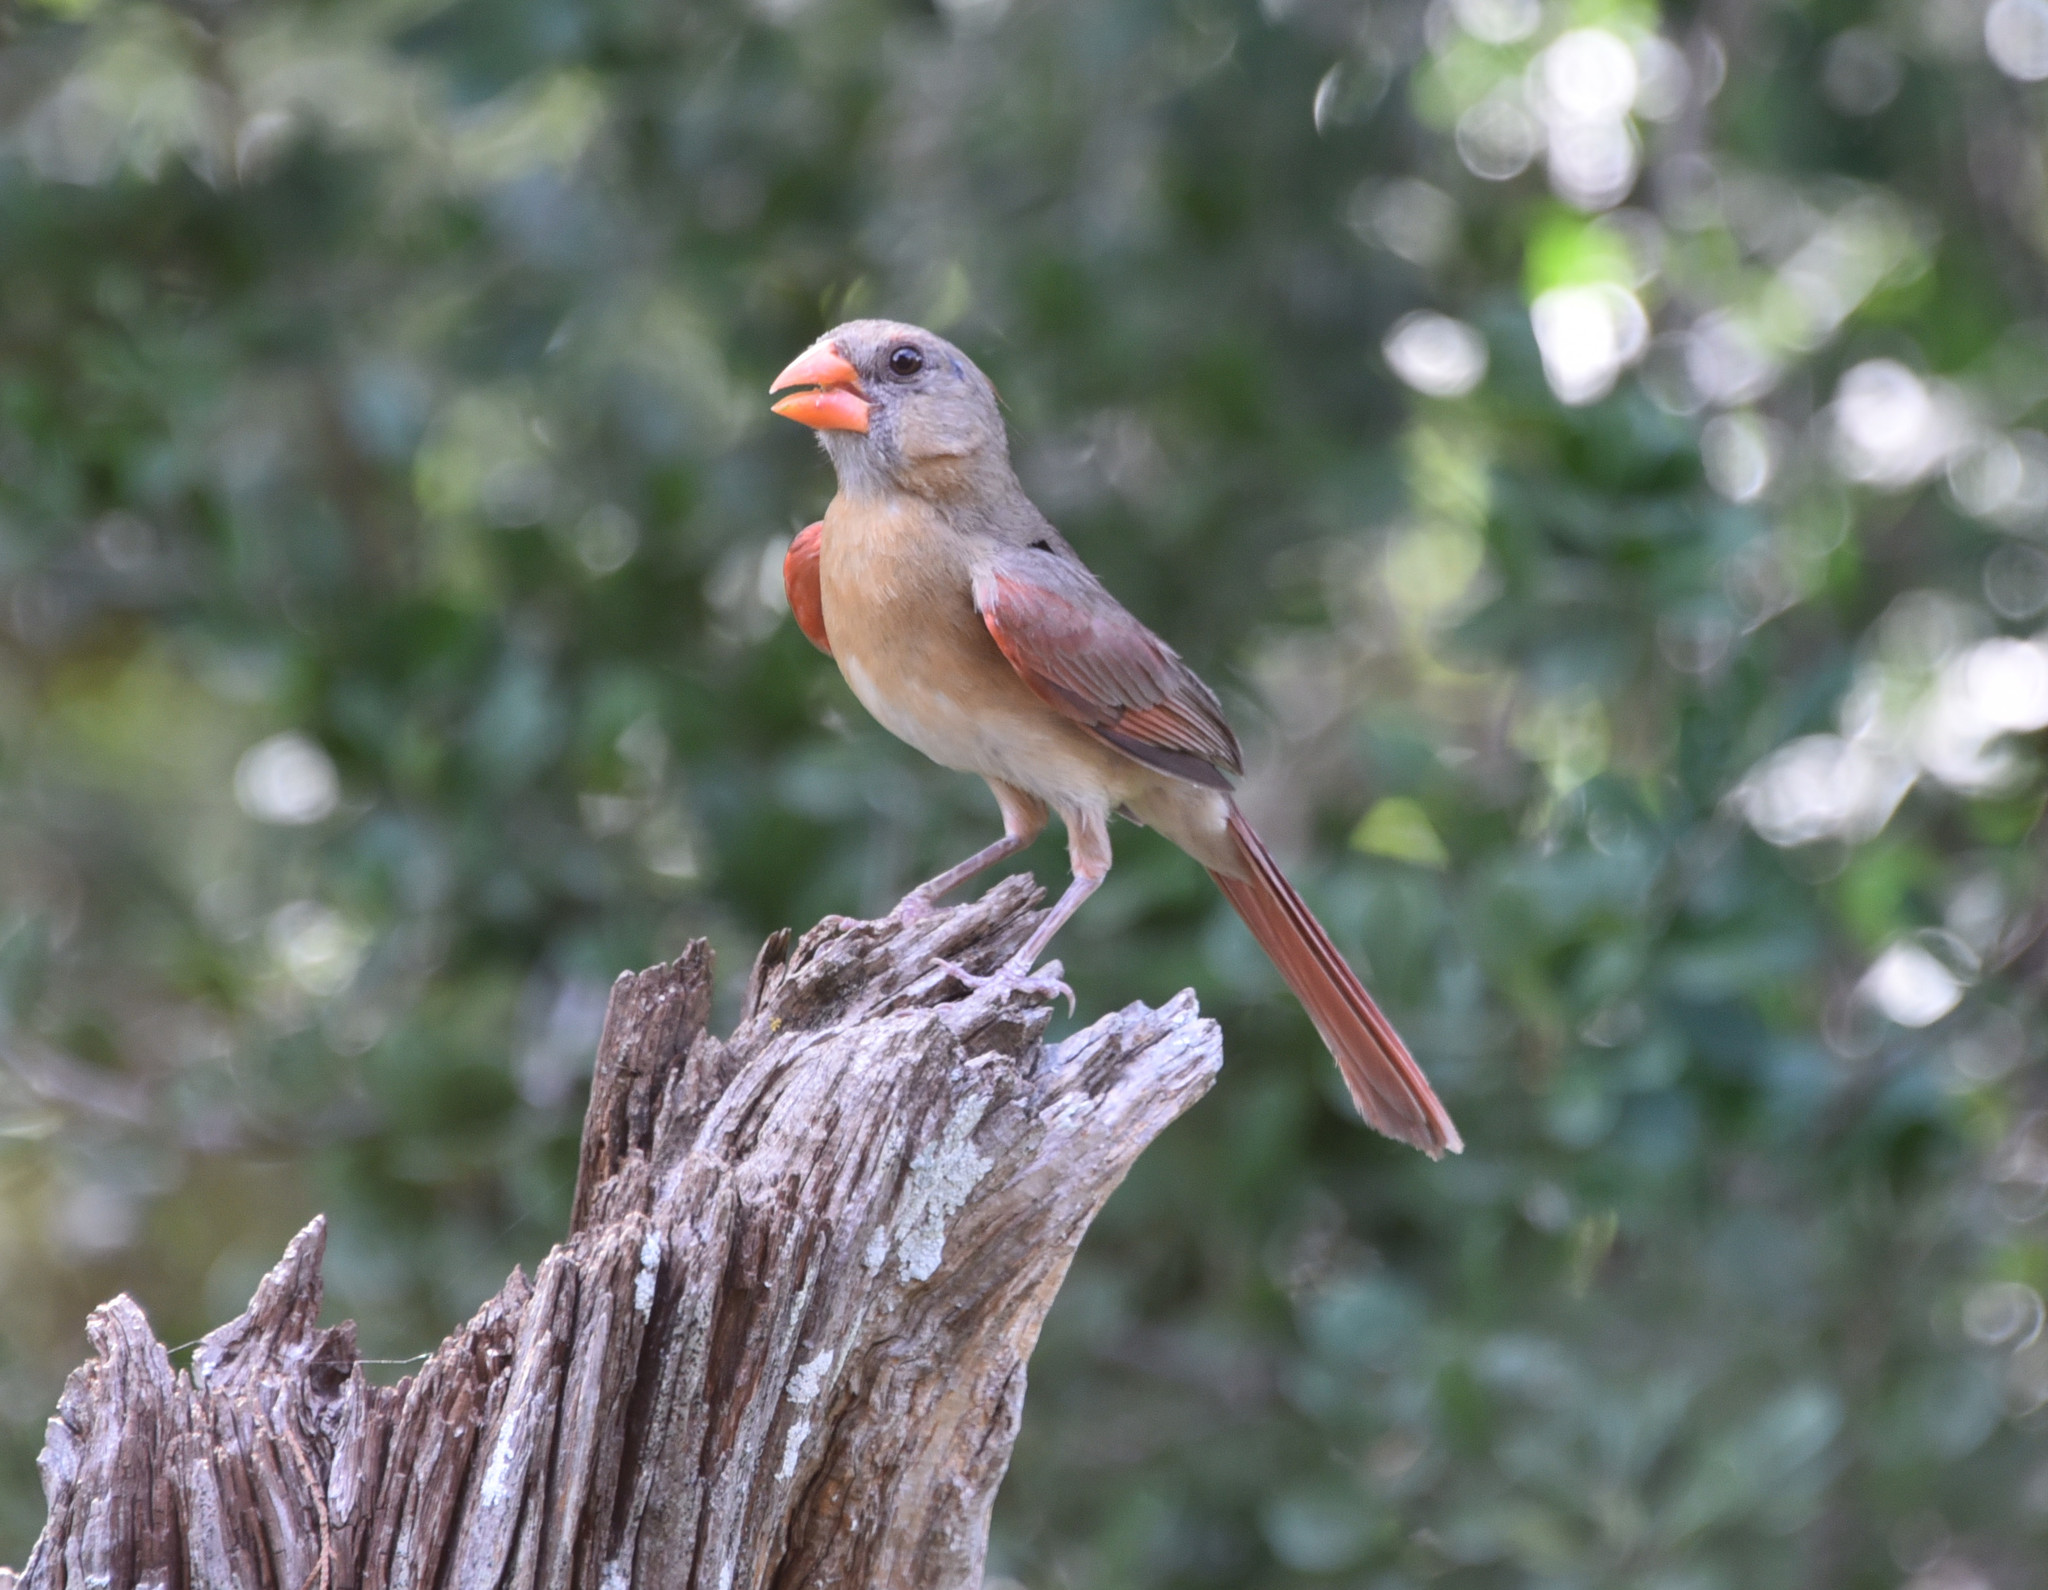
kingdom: Animalia
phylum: Chordata
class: Aves
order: Passeriformes
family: Cardinalidae
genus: Cardinalis
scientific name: Cardinalis cardinalis
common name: Northern cardinal
